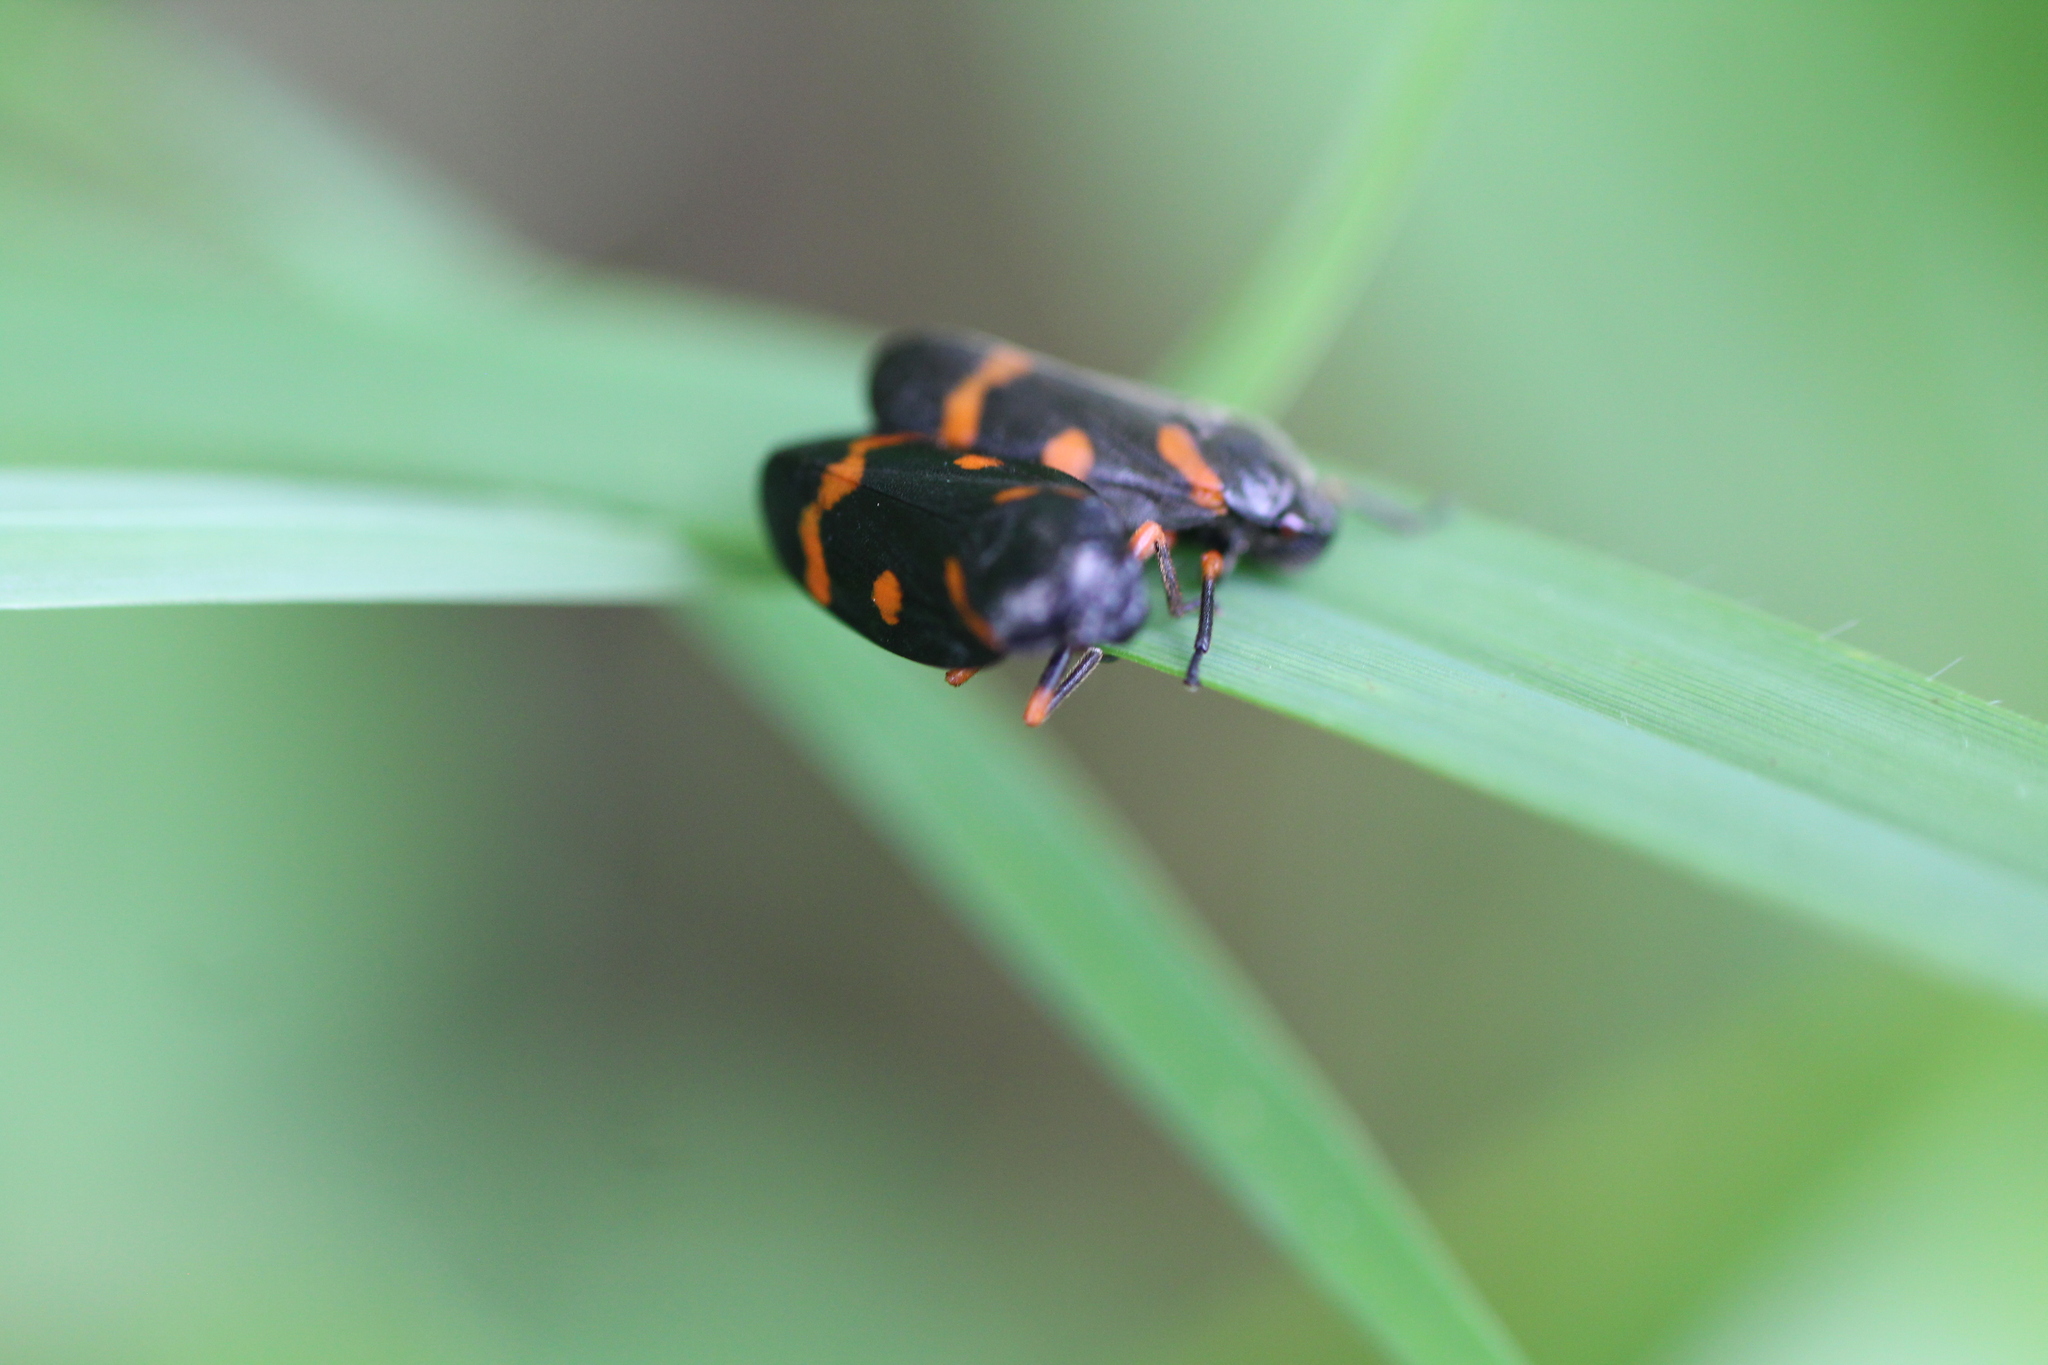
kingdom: Animalia
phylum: Arthropoda
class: Insecta
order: Hemiptera
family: Cercopidae
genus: Cercopis
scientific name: Cercopis intermedia
